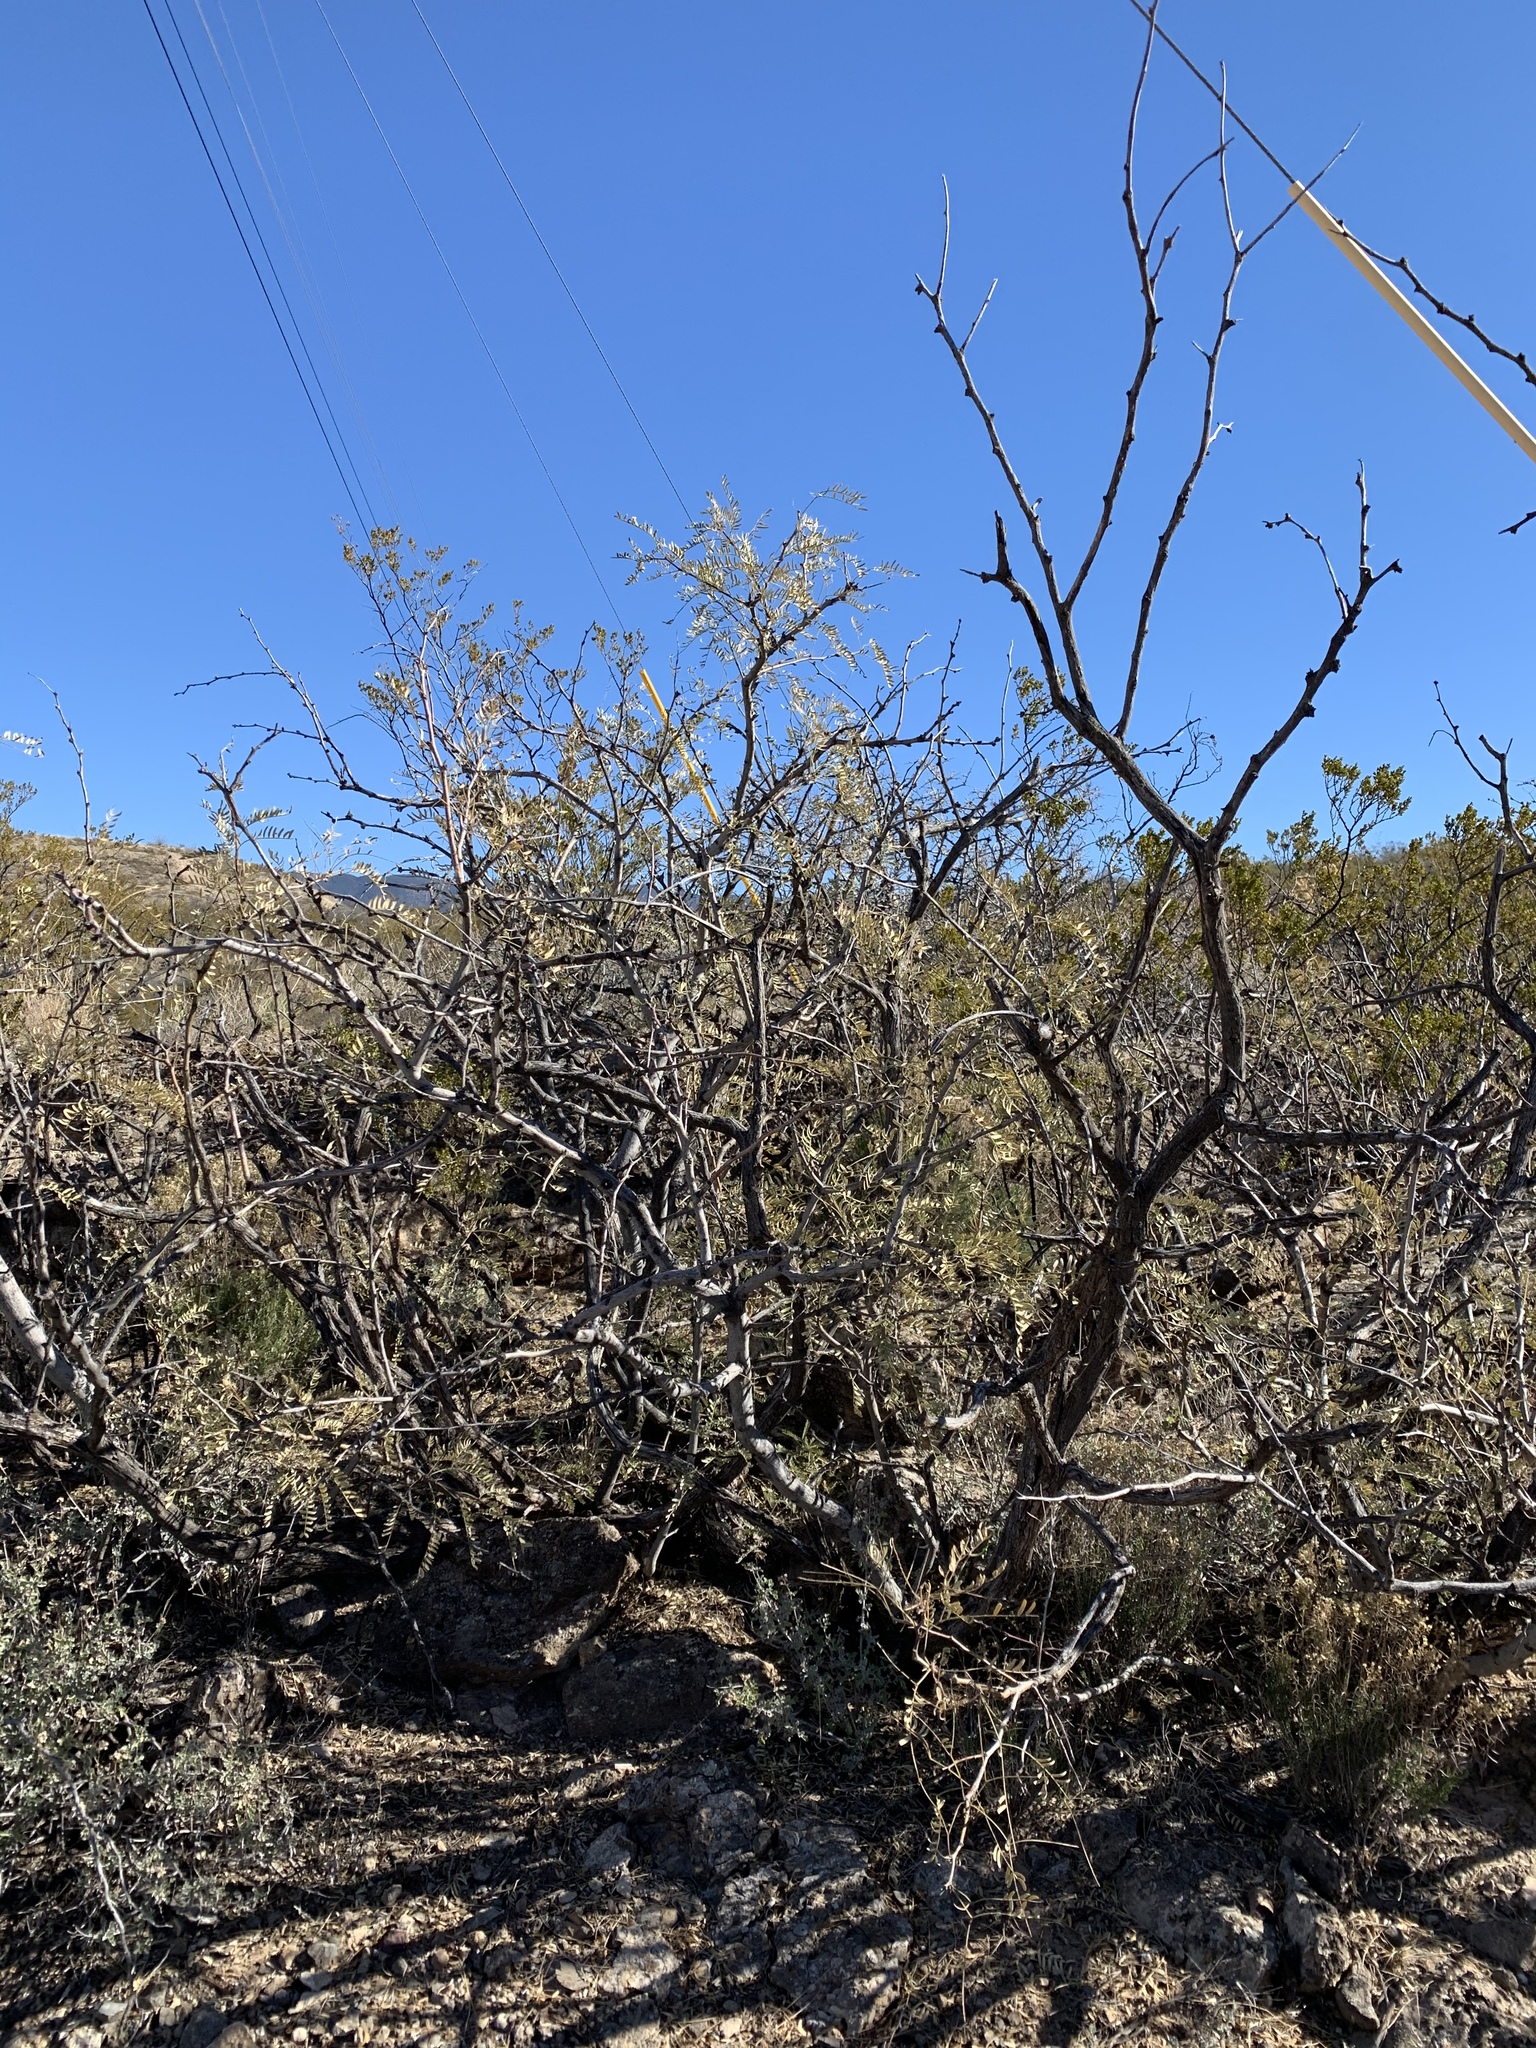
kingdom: Plantae
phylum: Tracheophyta
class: Magnoliopsida
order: Fabales
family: Fabaceae
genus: Prosopis
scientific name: Prosopis glandulosa
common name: Honey mesquite
